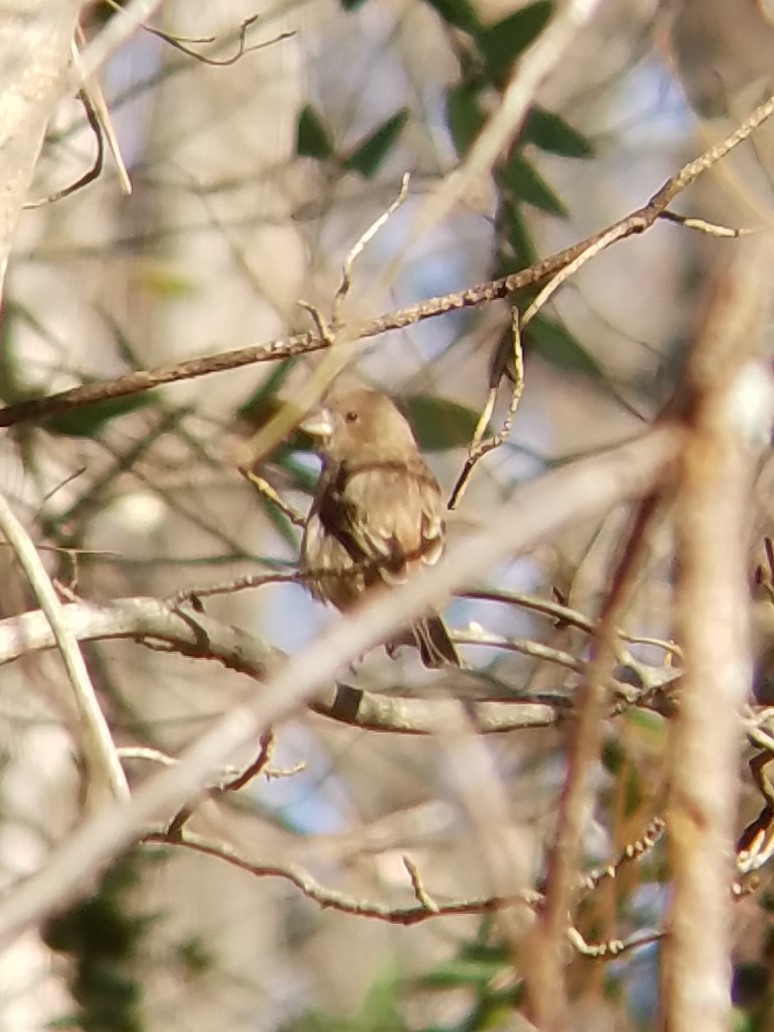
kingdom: Animalia
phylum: Chordata
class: Aves
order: Passeriformes
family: Fringillidae
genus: Haemorhous
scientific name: Haemorhous mexicanus
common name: House finch
